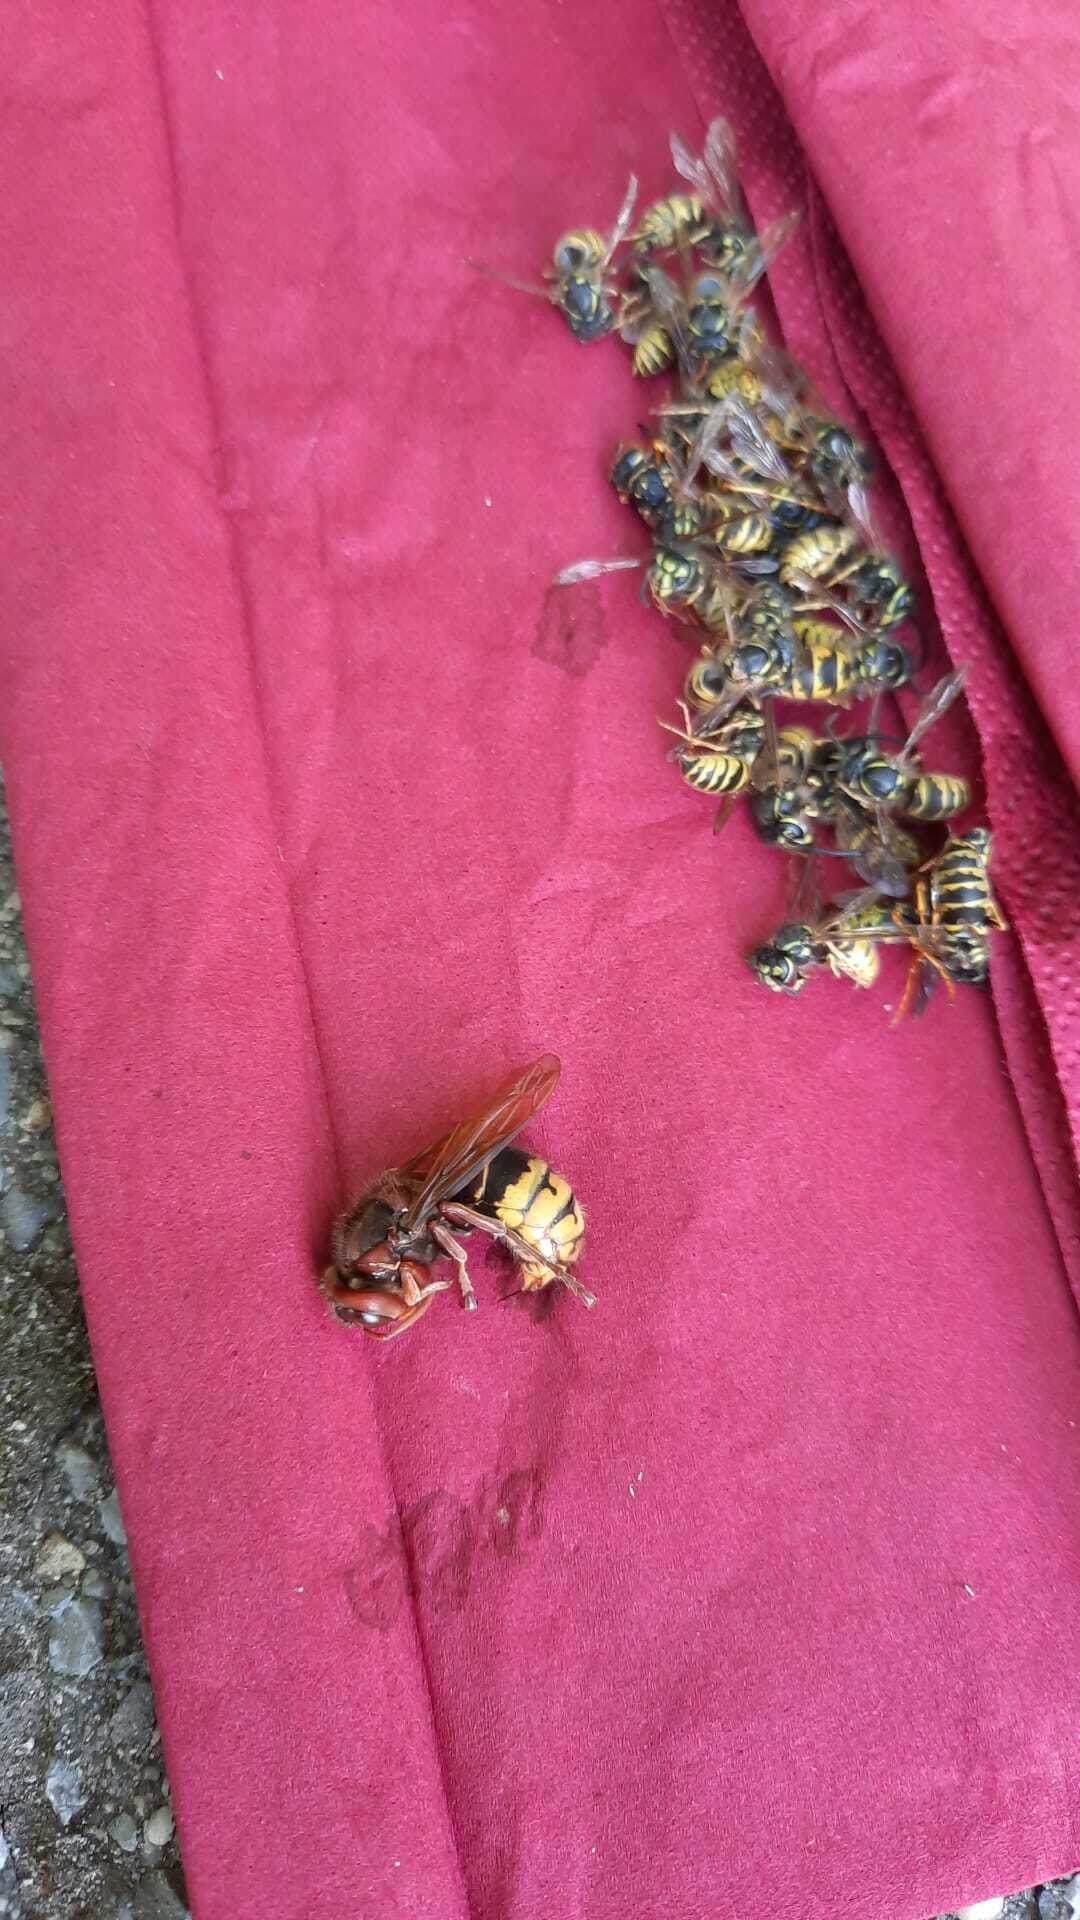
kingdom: Animalia
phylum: Arthropoda
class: Insecta
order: Hymenoptera
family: Vespidae
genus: Vespa
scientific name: Vespa crabro
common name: Hornet
